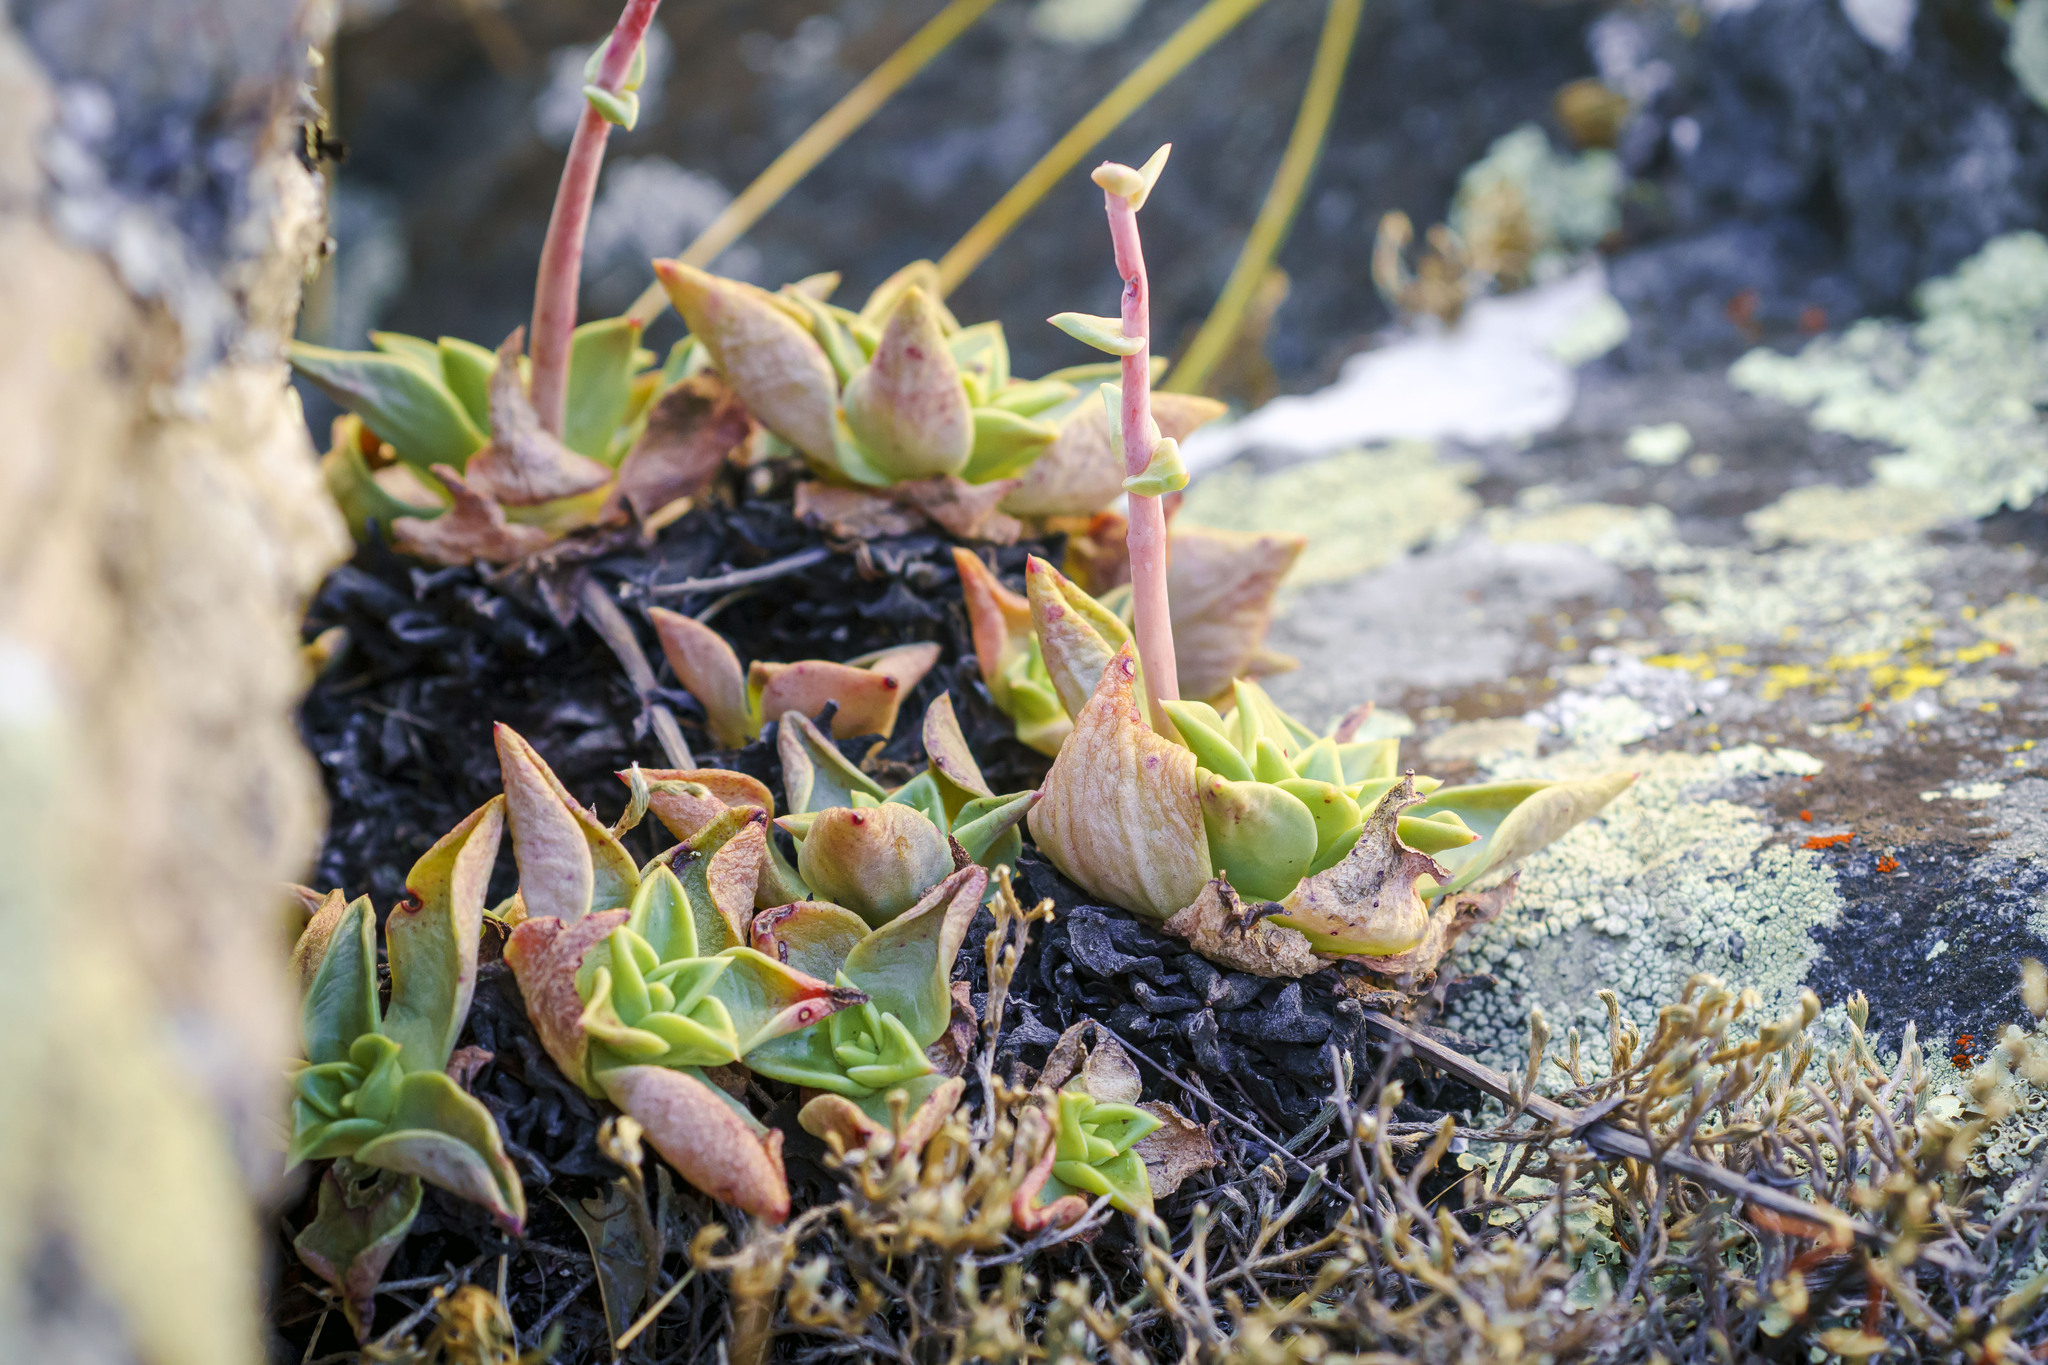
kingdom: Plantae
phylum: Tracheophyta
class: Magnoliopsida
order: Saxifragales
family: Crassulaceae
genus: Dudleya
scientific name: Dudleya rigida
